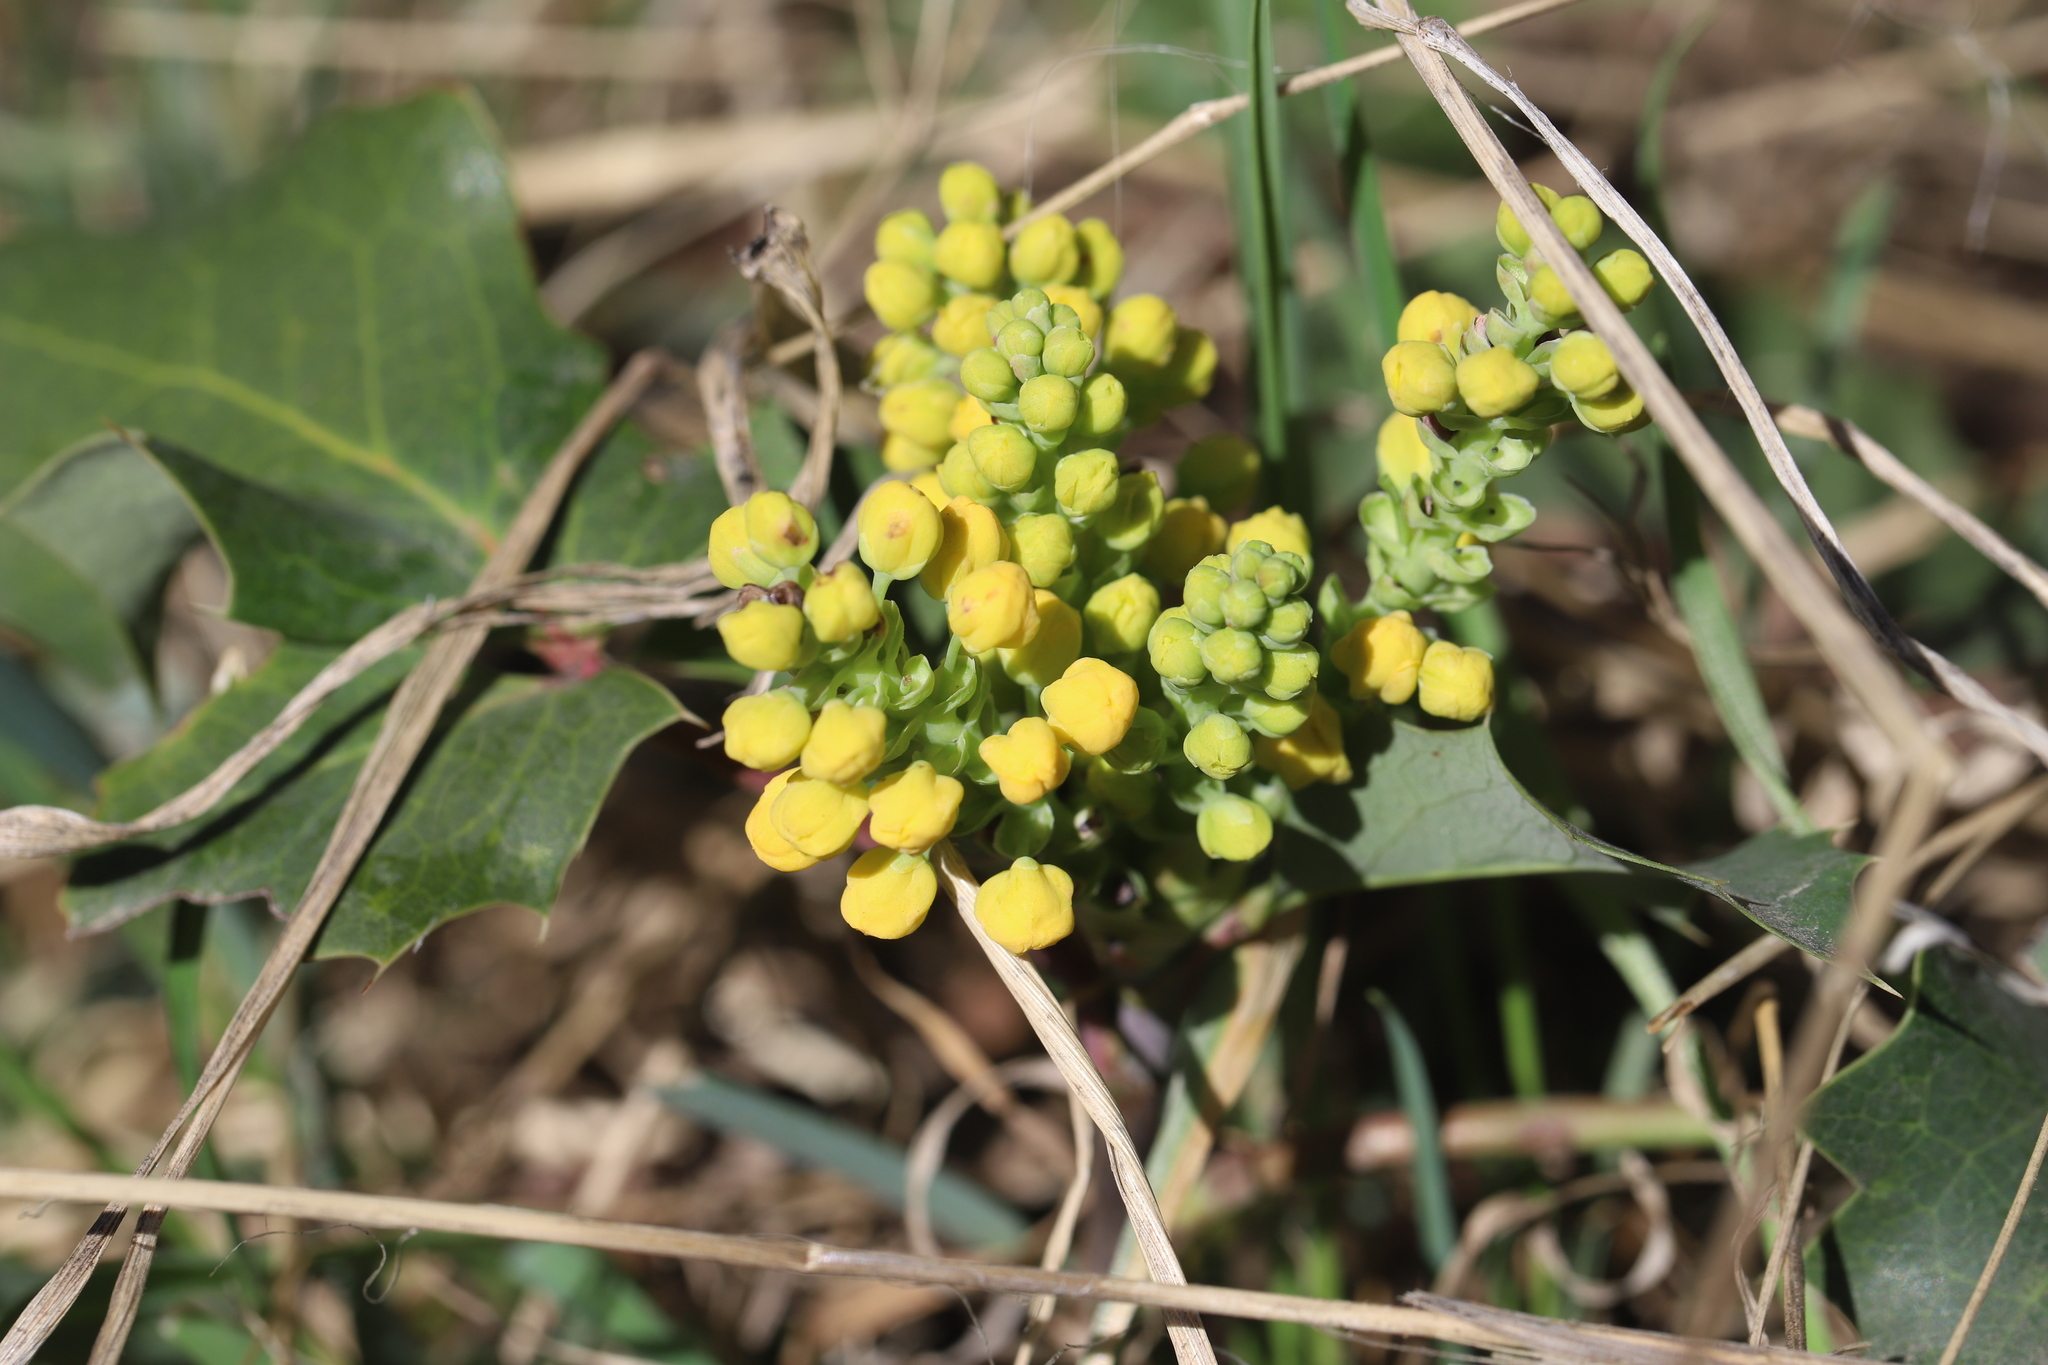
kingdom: Plantae
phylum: Tracheophyta
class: Magnoliopsida
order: Ranunculales
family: Berberidaceae
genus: Mahonia
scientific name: Mahonia repens
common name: Creeping oregon-grape
